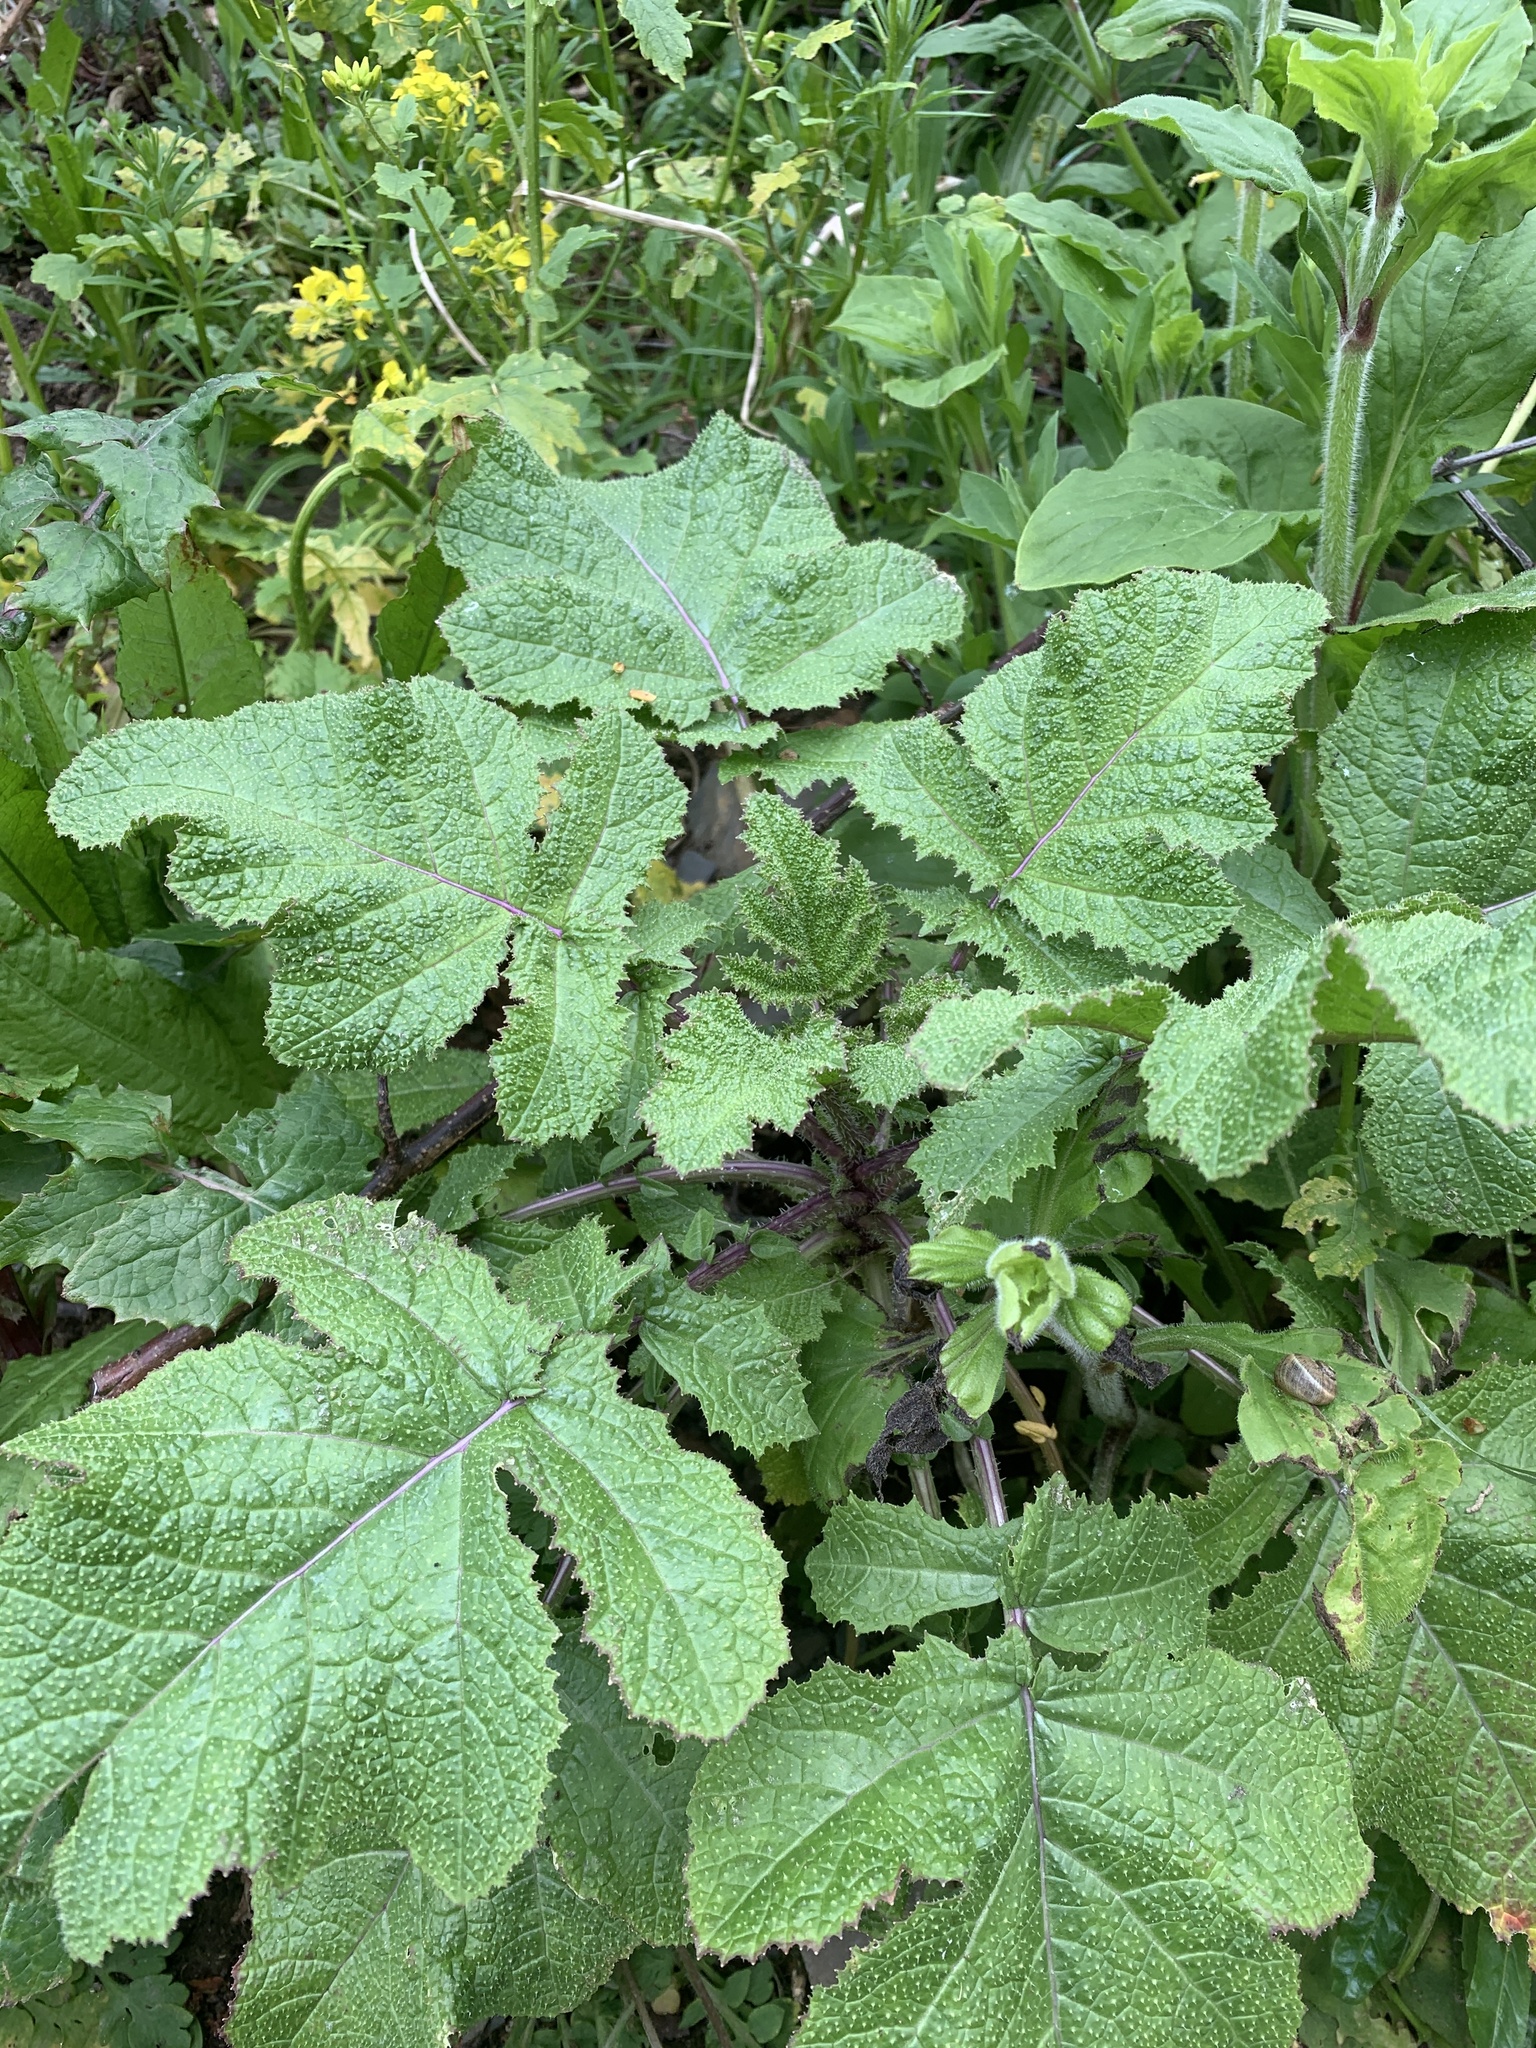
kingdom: Plantae
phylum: Tracheophyta
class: Magnoliopsida
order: Brassicales
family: Brassicaceae
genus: Brassica
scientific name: Brassica nigra
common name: Black mustard
